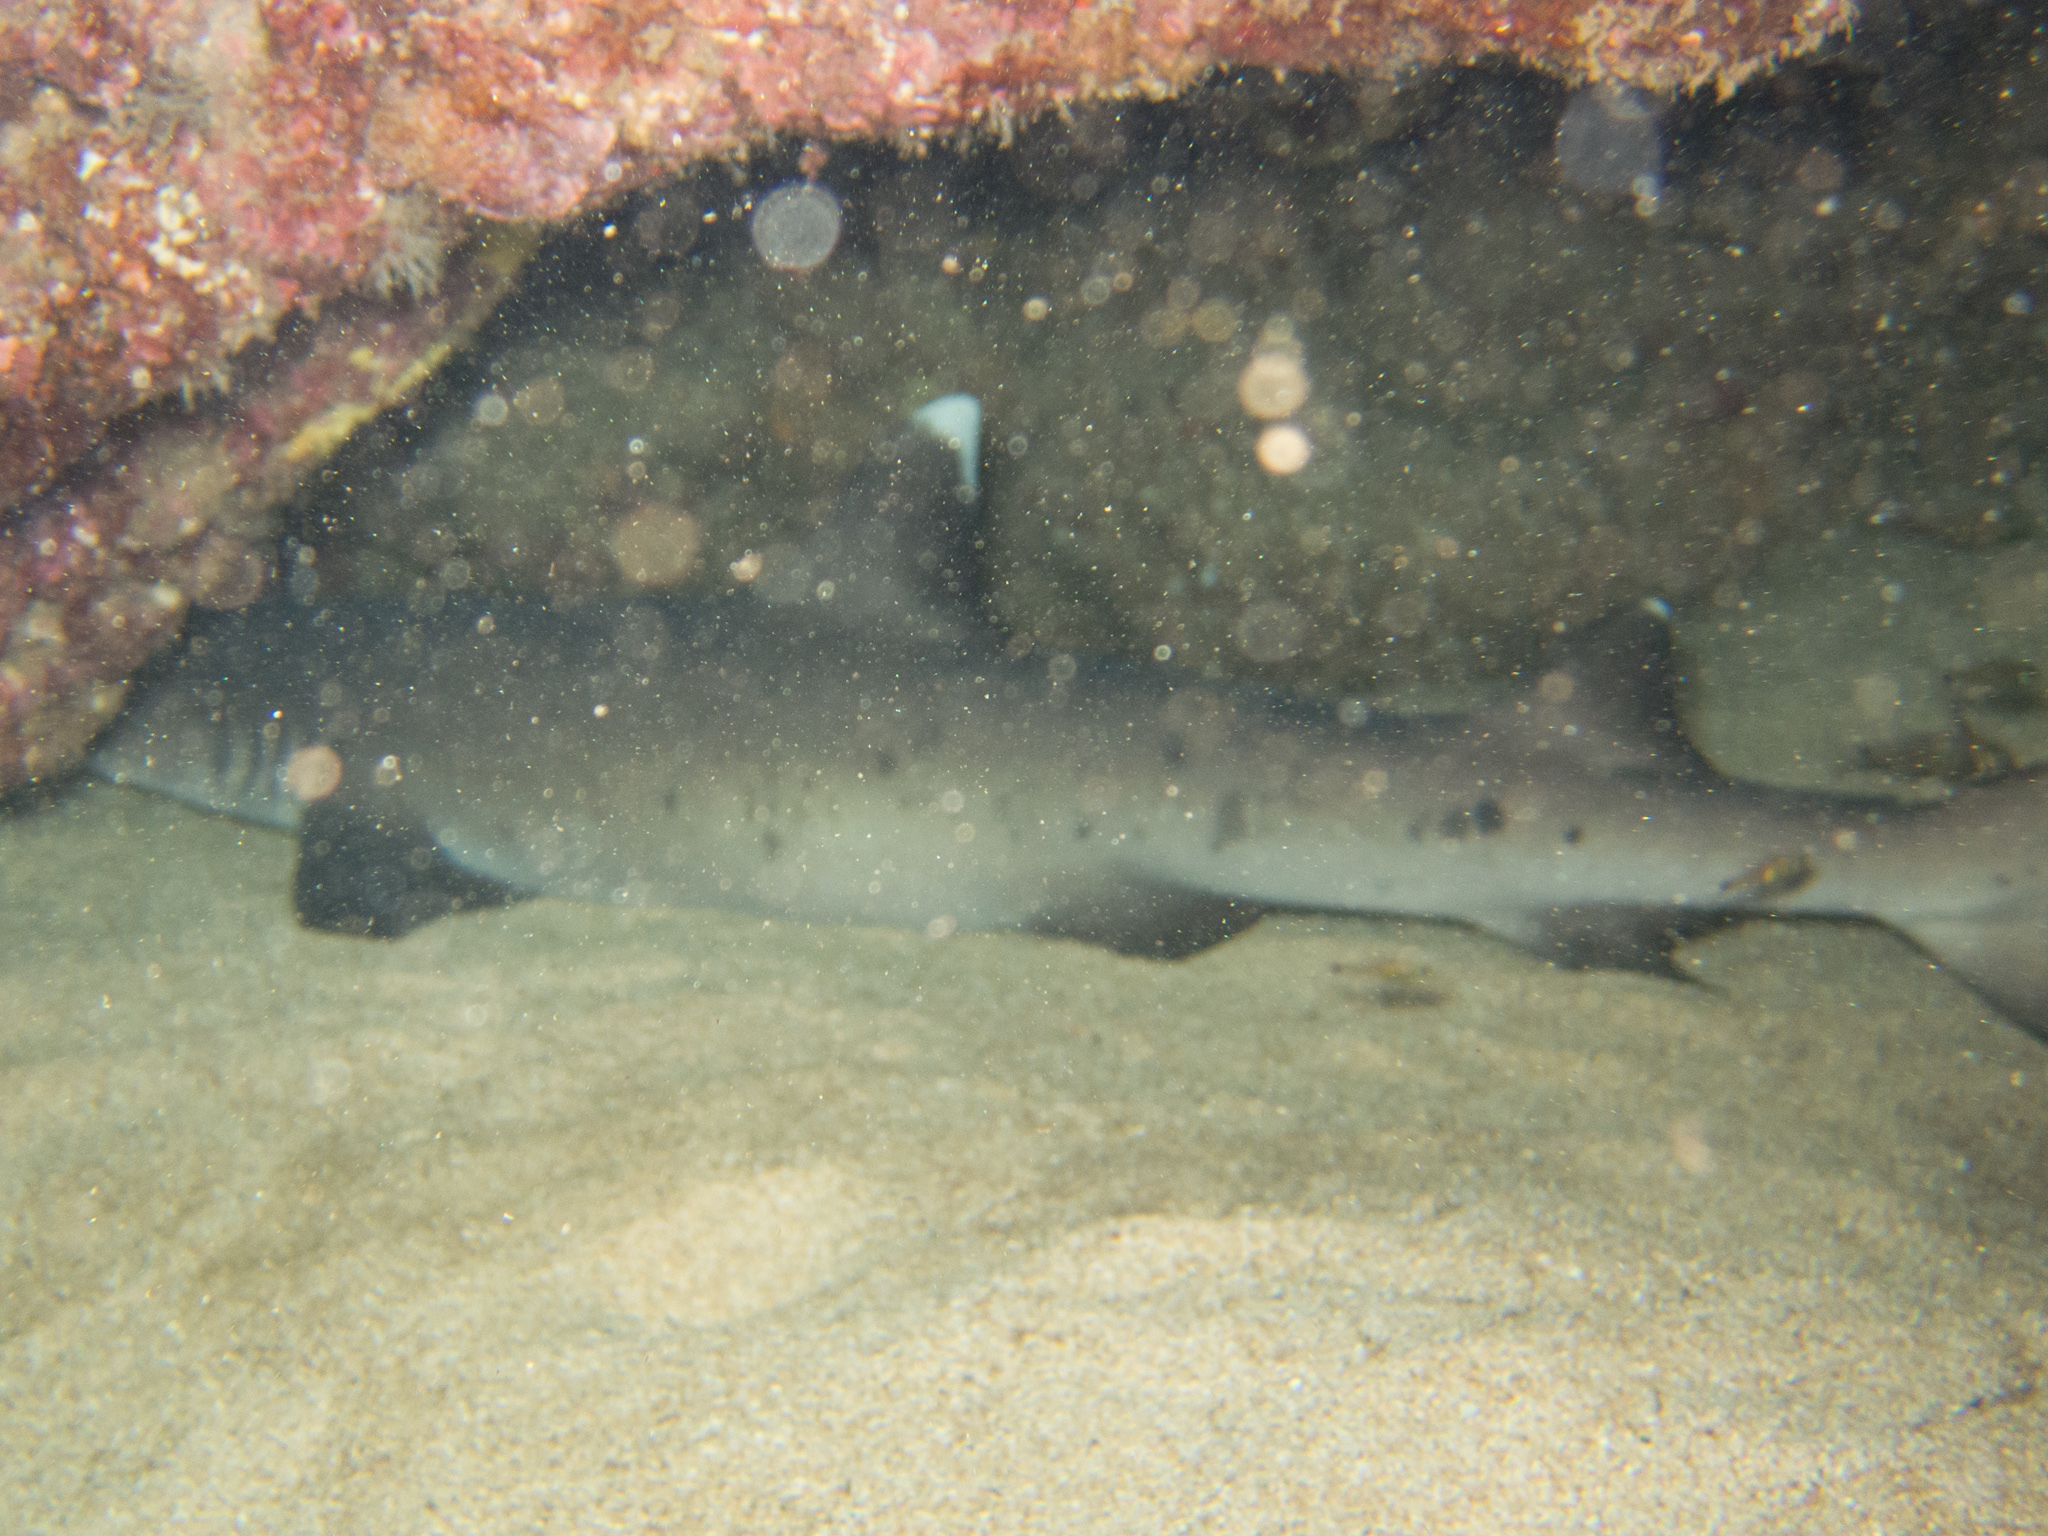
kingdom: Animalia
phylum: Chordata
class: Elasmobranchii
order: Carcharhiniformes
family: Carcharhinidae
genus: Triaenodon
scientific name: Triaenodon obesus
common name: Whitetip reef shark
